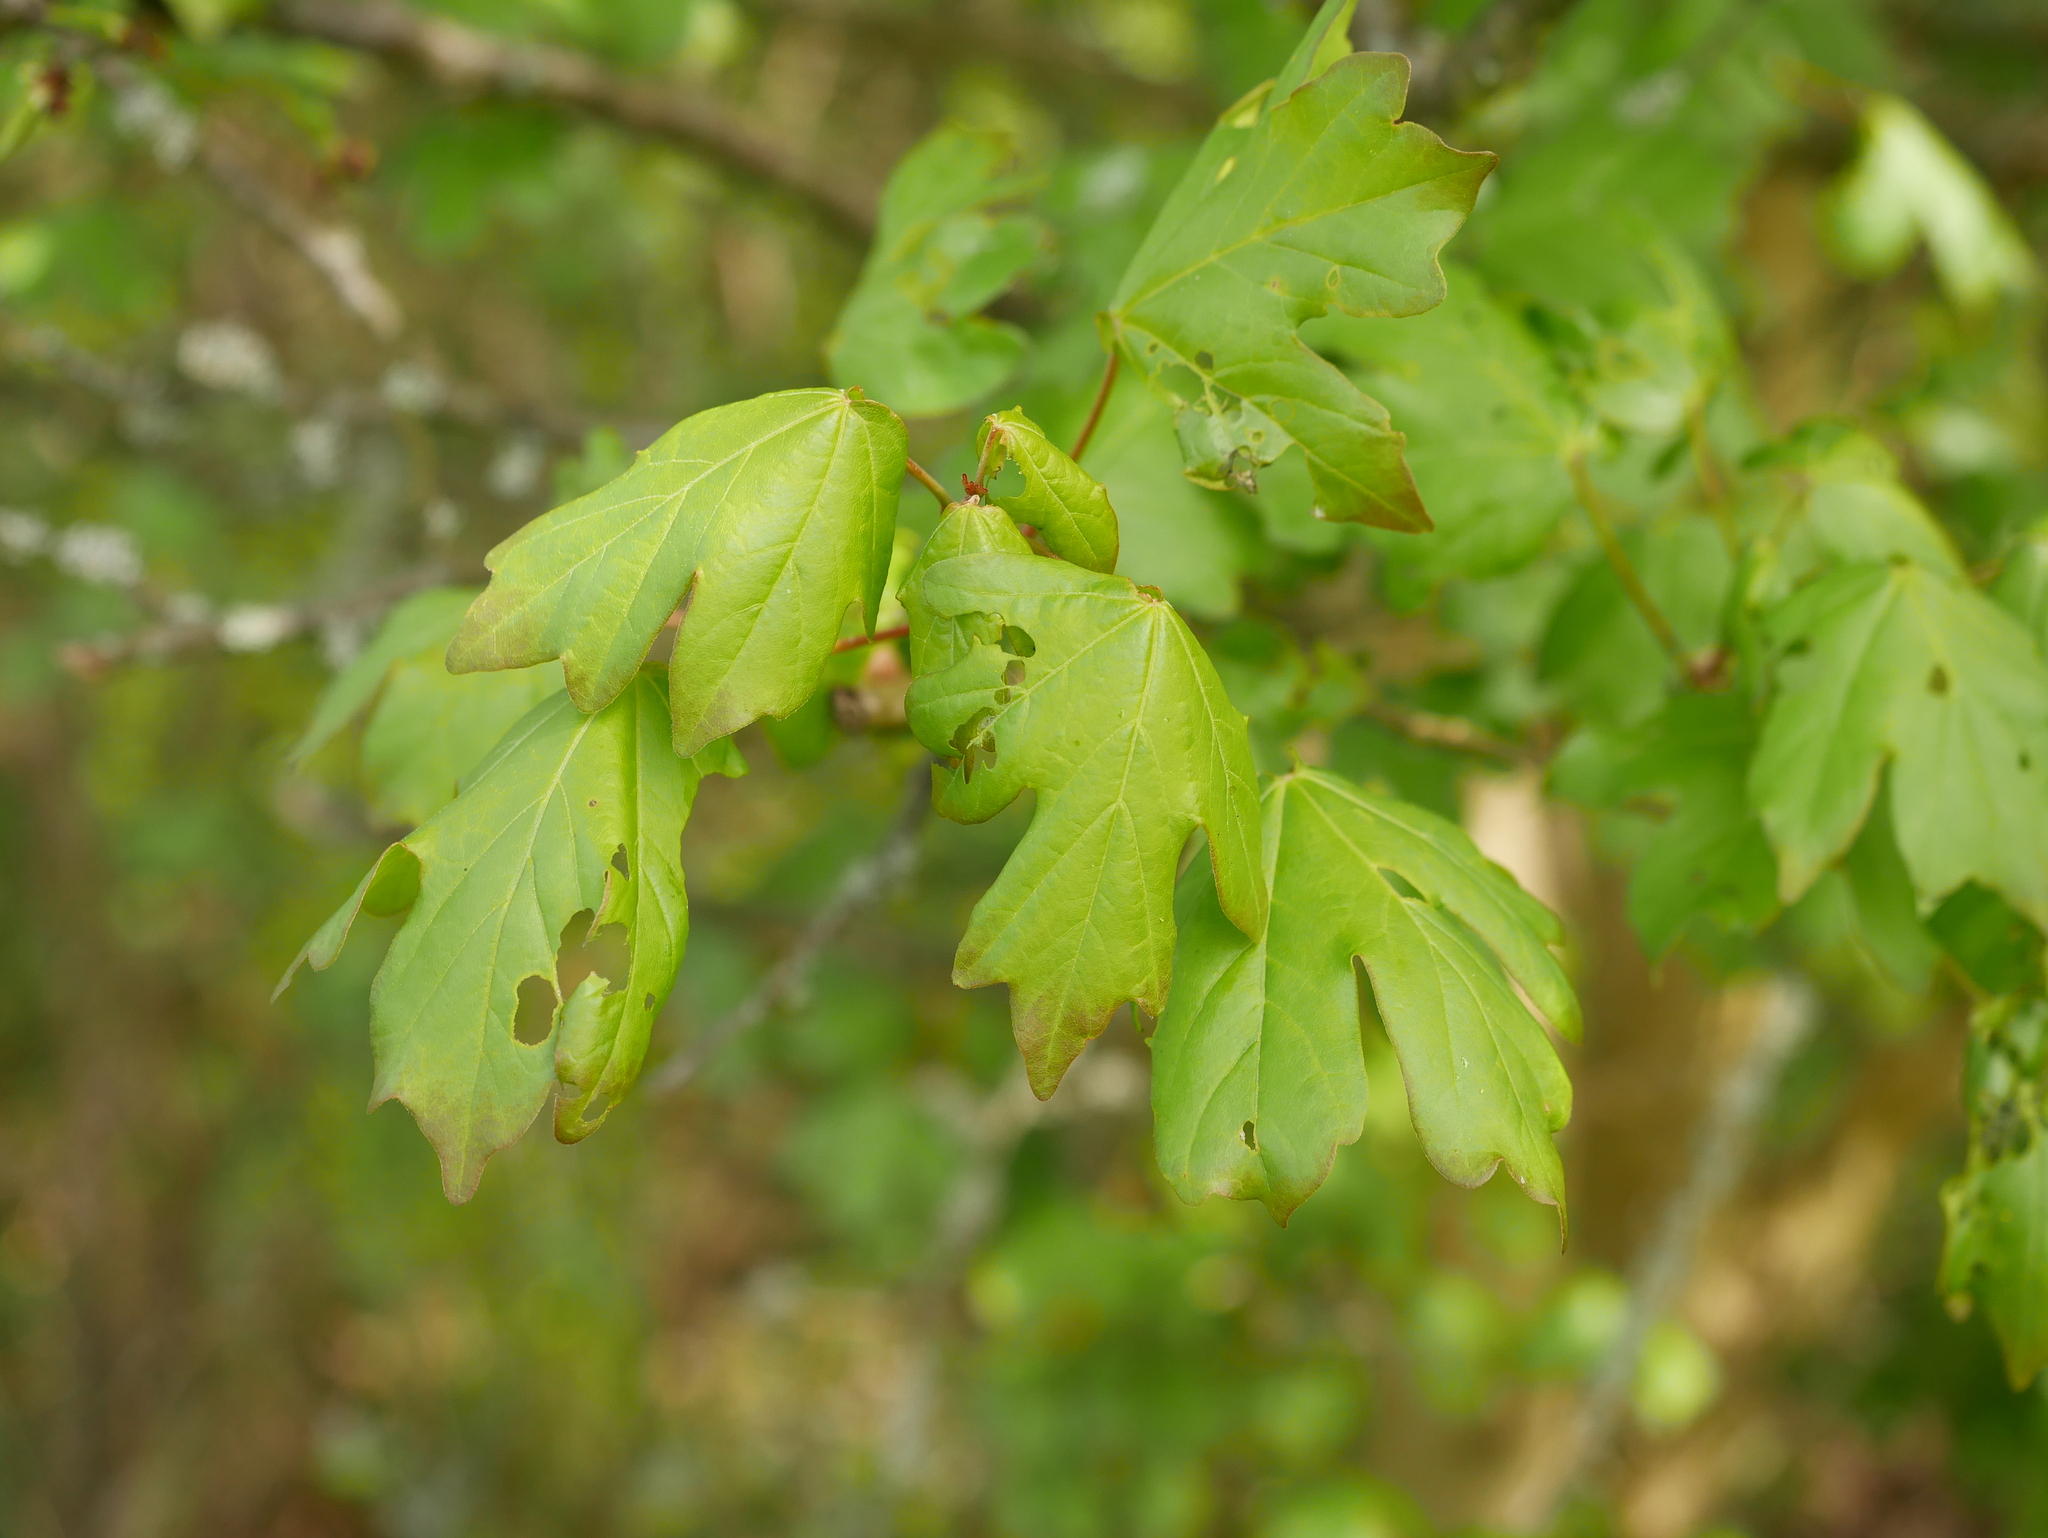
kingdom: Plantae
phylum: Tracheophyta
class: Magnoliopsida
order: Sapindales
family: Sapindaceae
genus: Acer
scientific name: Acer campestre
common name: Field maple
